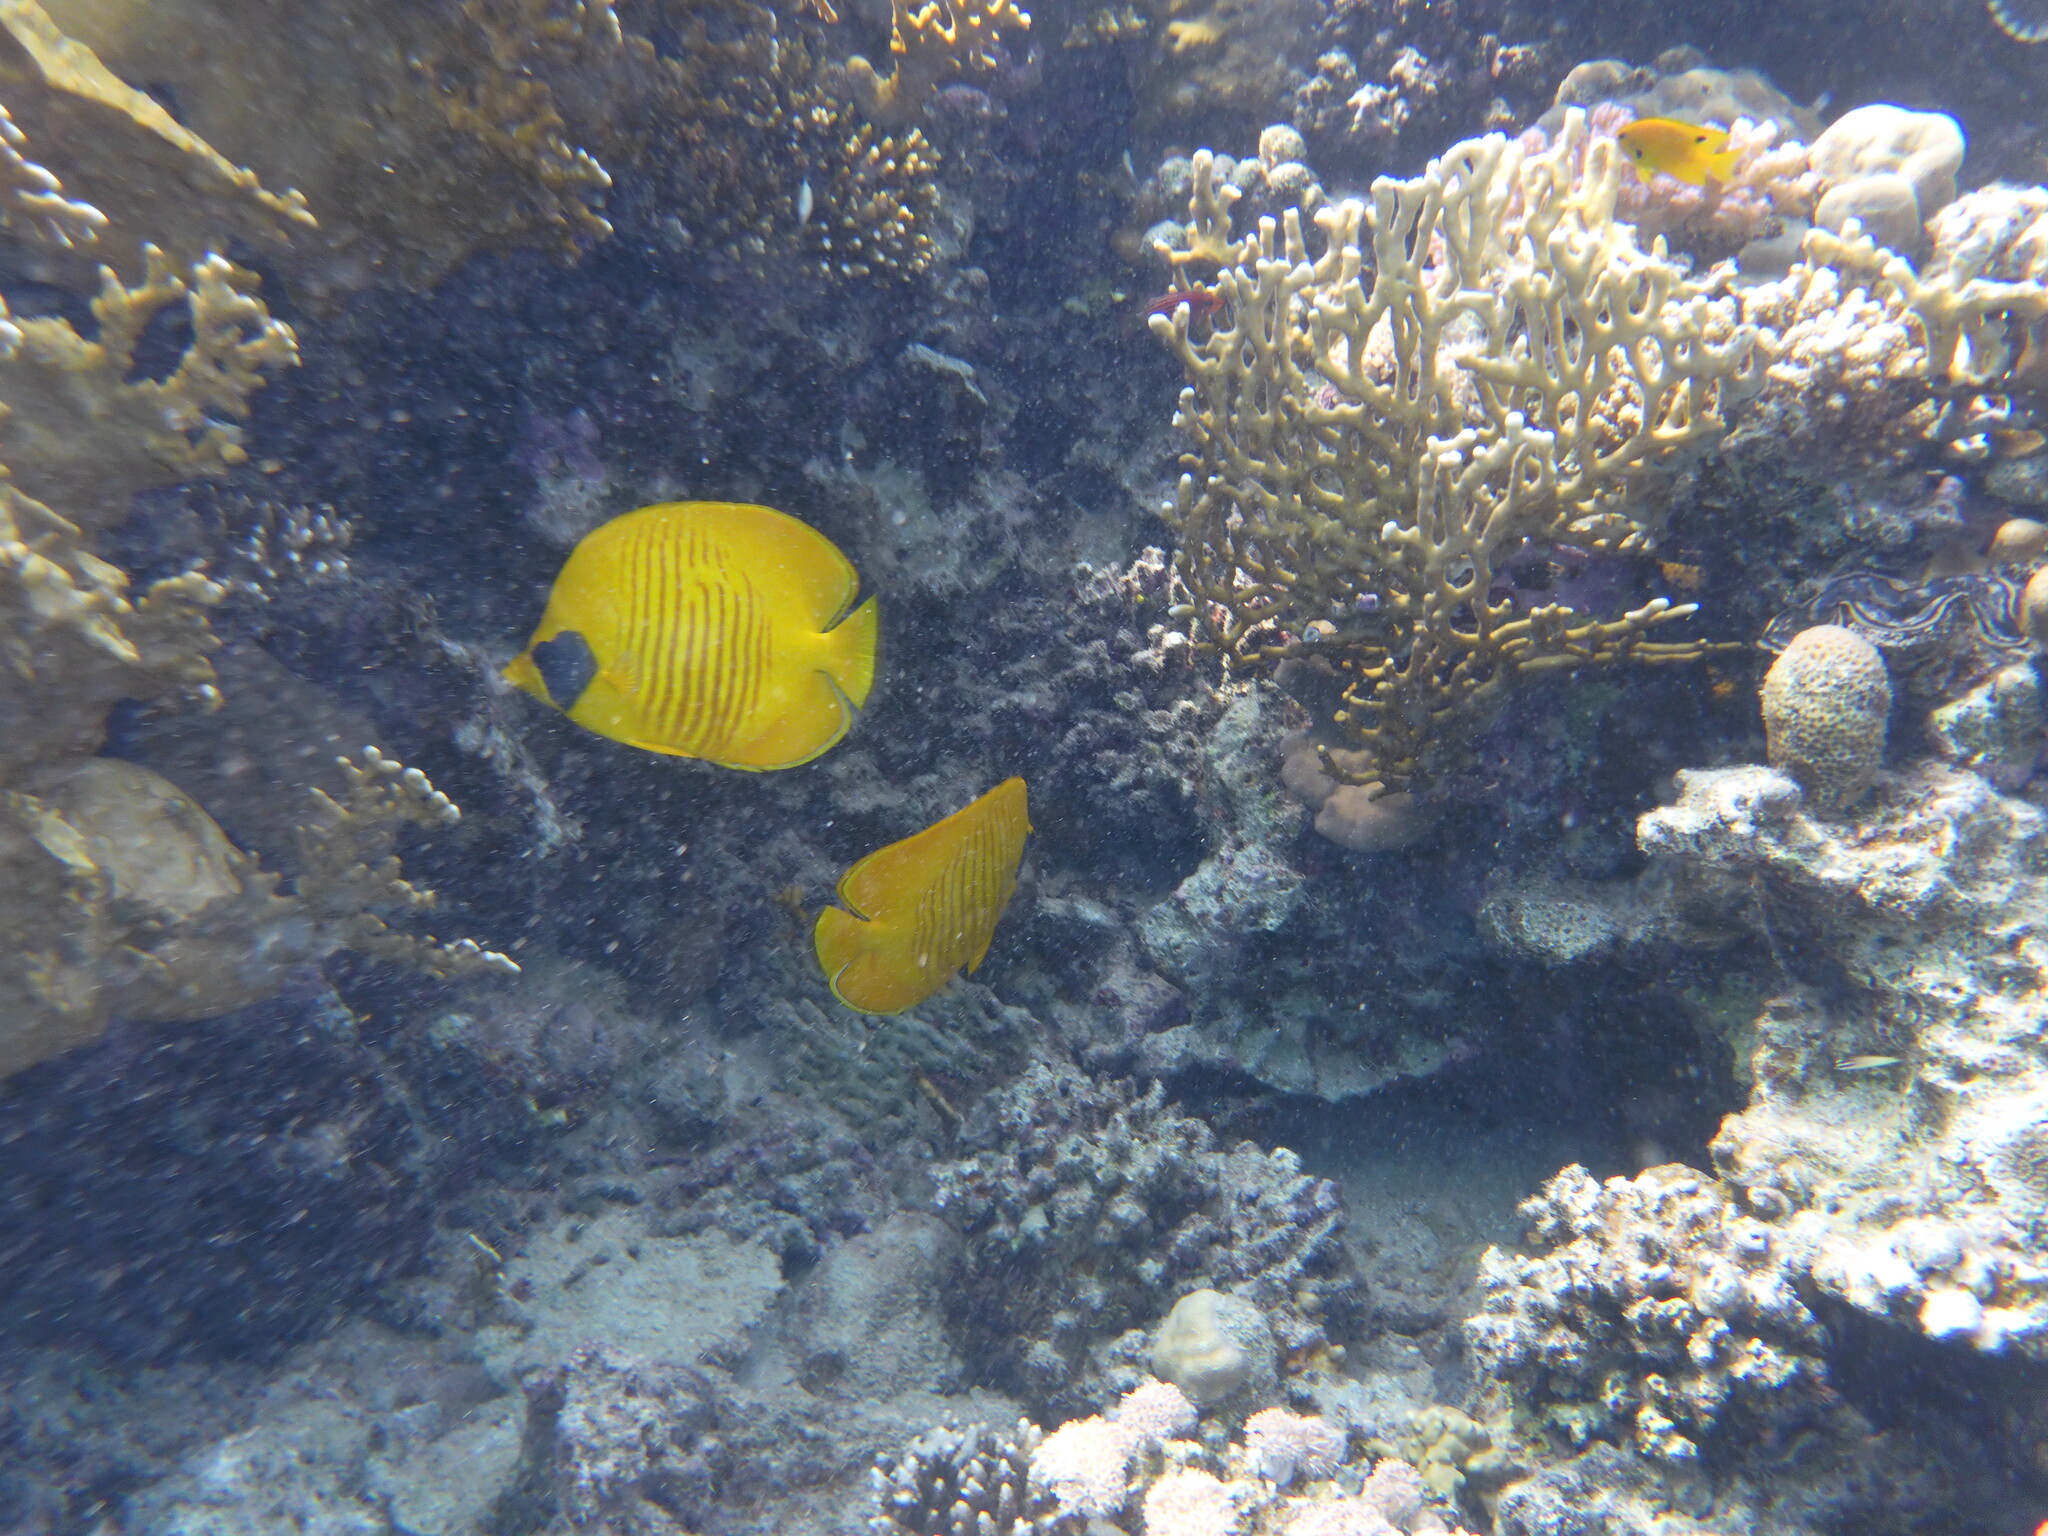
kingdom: Animalia
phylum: Chordata
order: Perciformes
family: Chaetodontidae
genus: Chaetodon
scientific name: Chaetodon semilarvatus
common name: Golden butterflyfish
